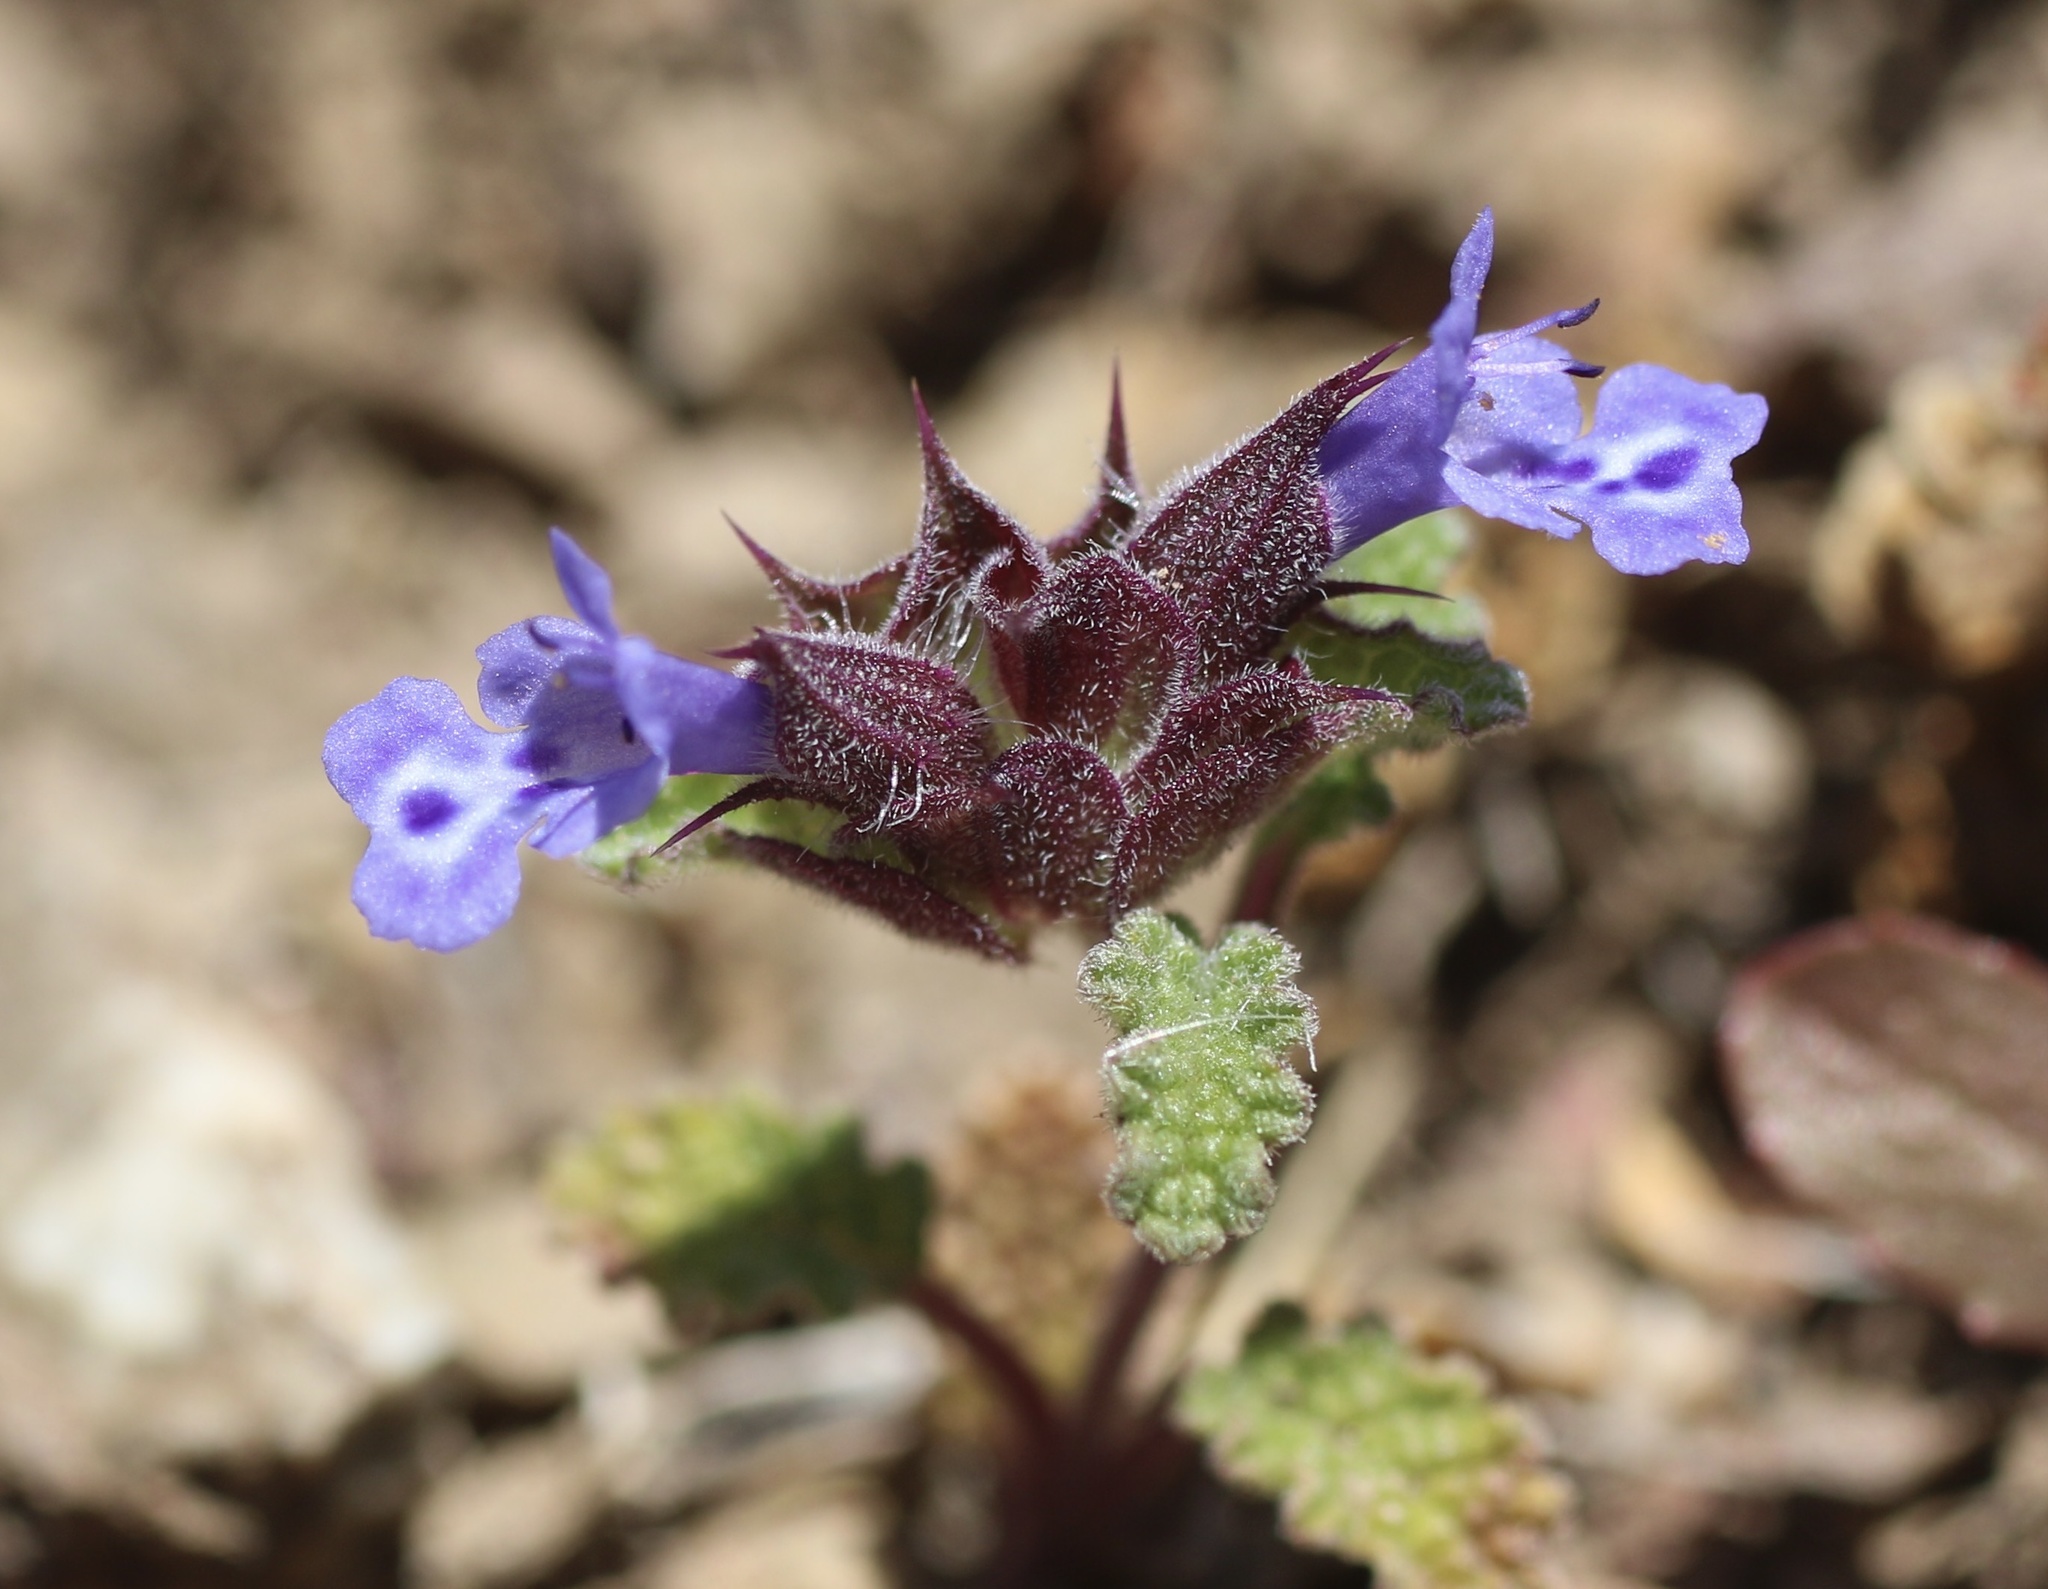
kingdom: Plantae
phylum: Tracheophyta
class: Magnoliopsida
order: Lamiales
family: Lamiaceae
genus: Salvia
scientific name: Salvia columbariae
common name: Chia
